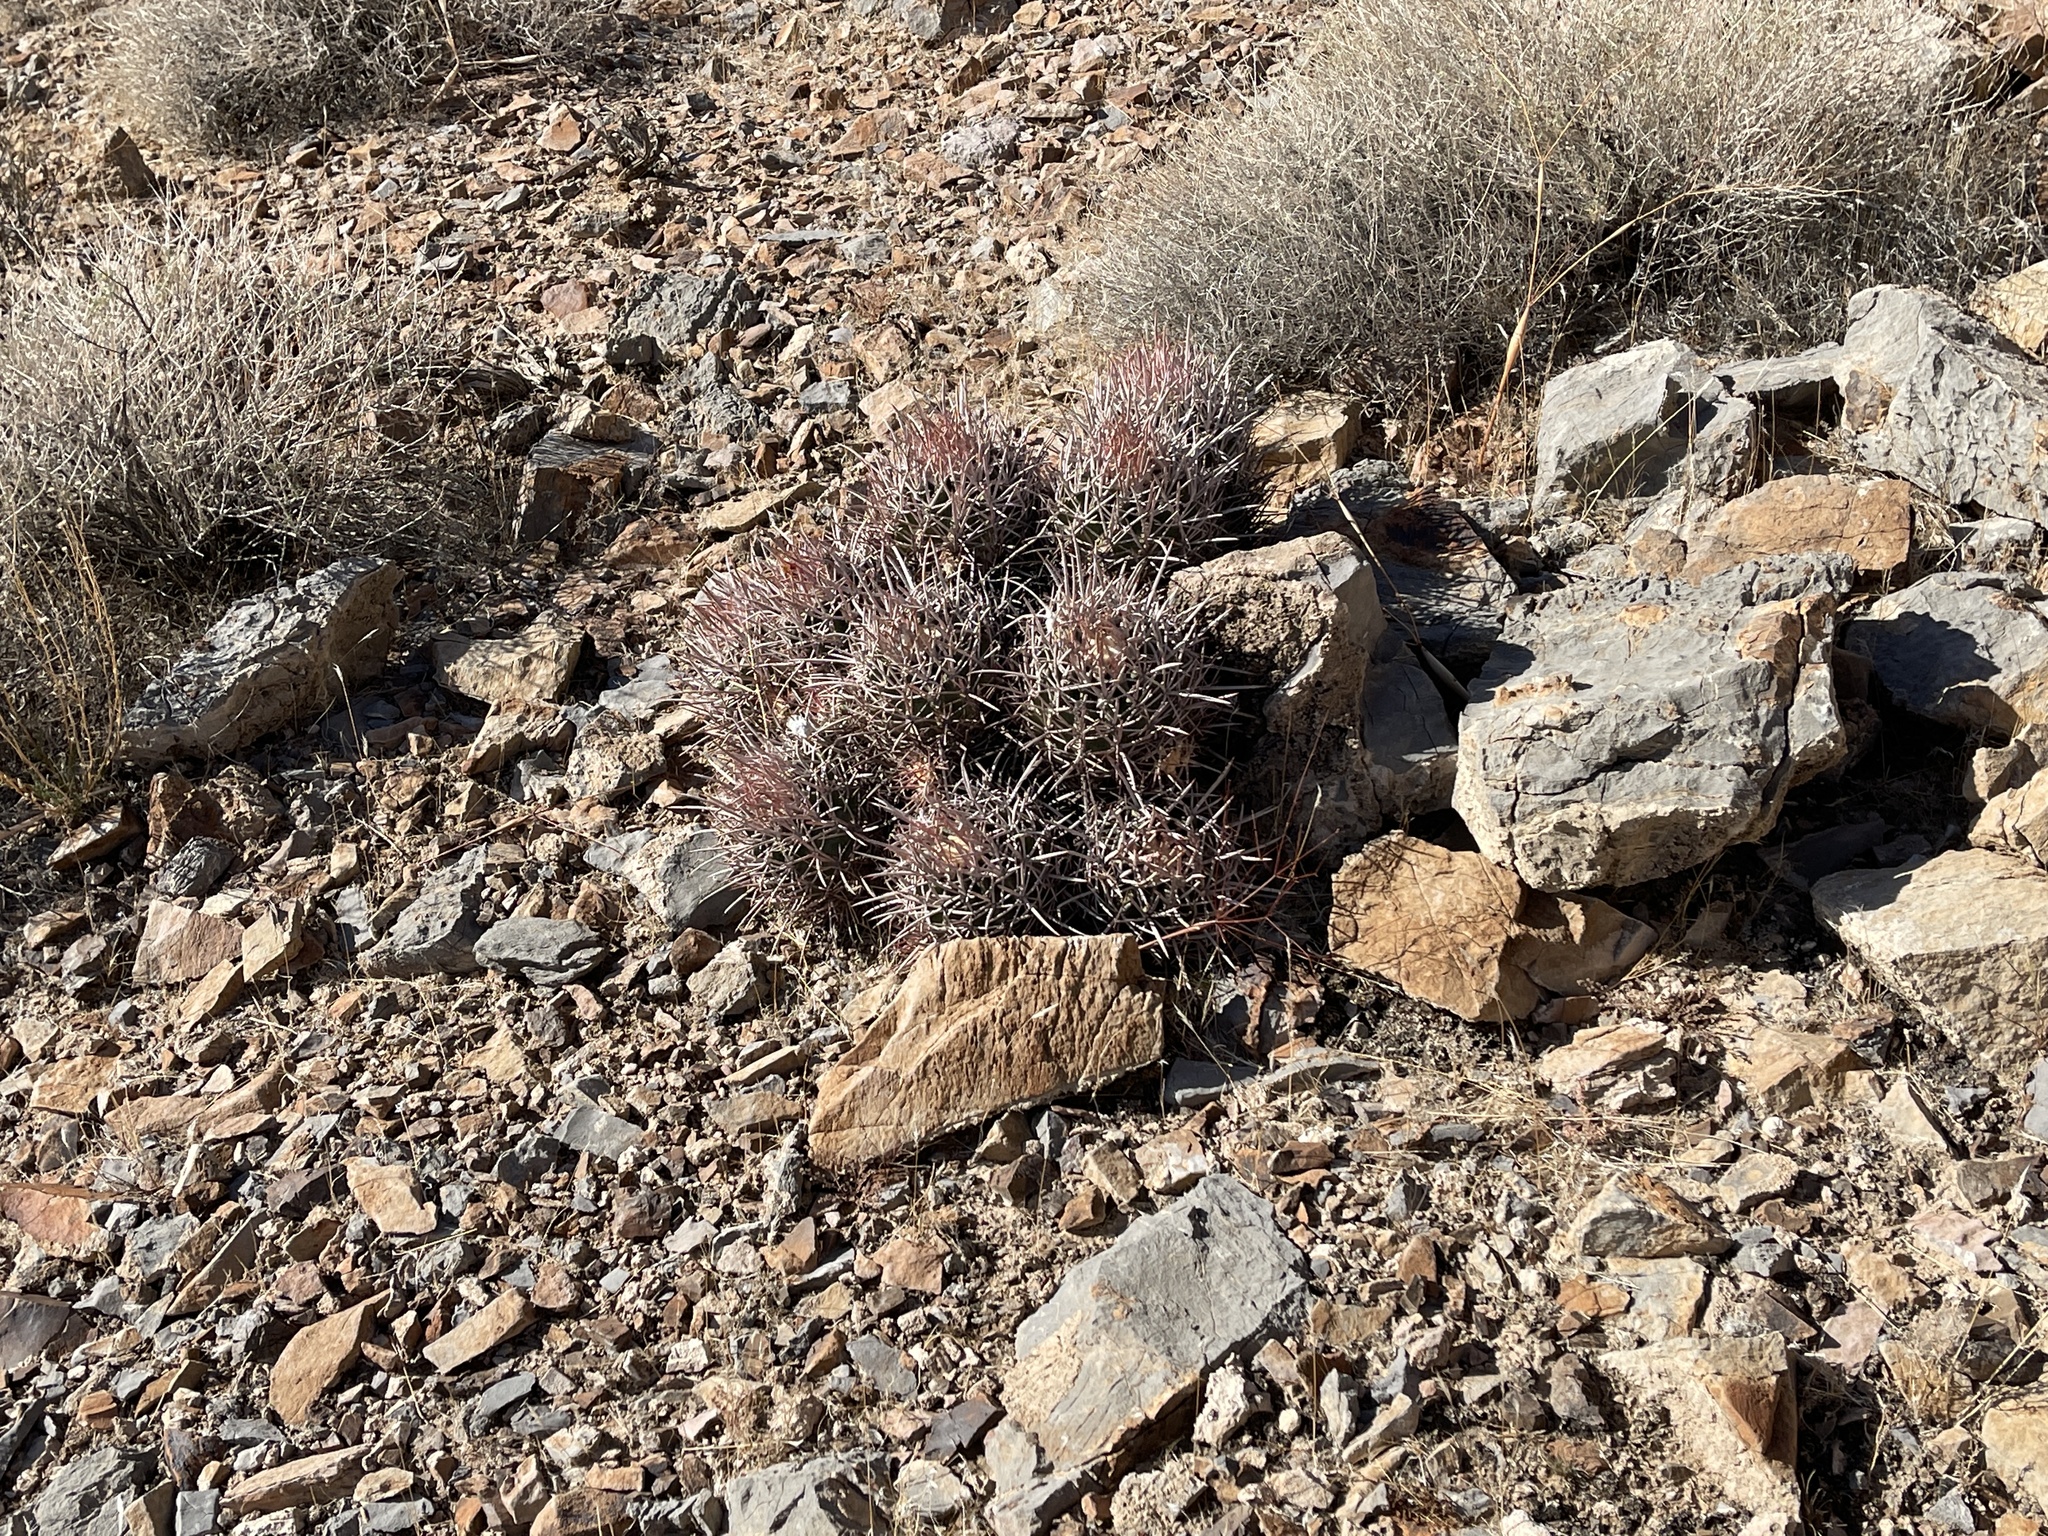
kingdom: Plantae
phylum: Tracheophyta
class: Magnoliopsida
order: Caryophyllales
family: Cactaceae
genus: Echinocactus
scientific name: Echinocactus polycephalus
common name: Cottontop cactus
